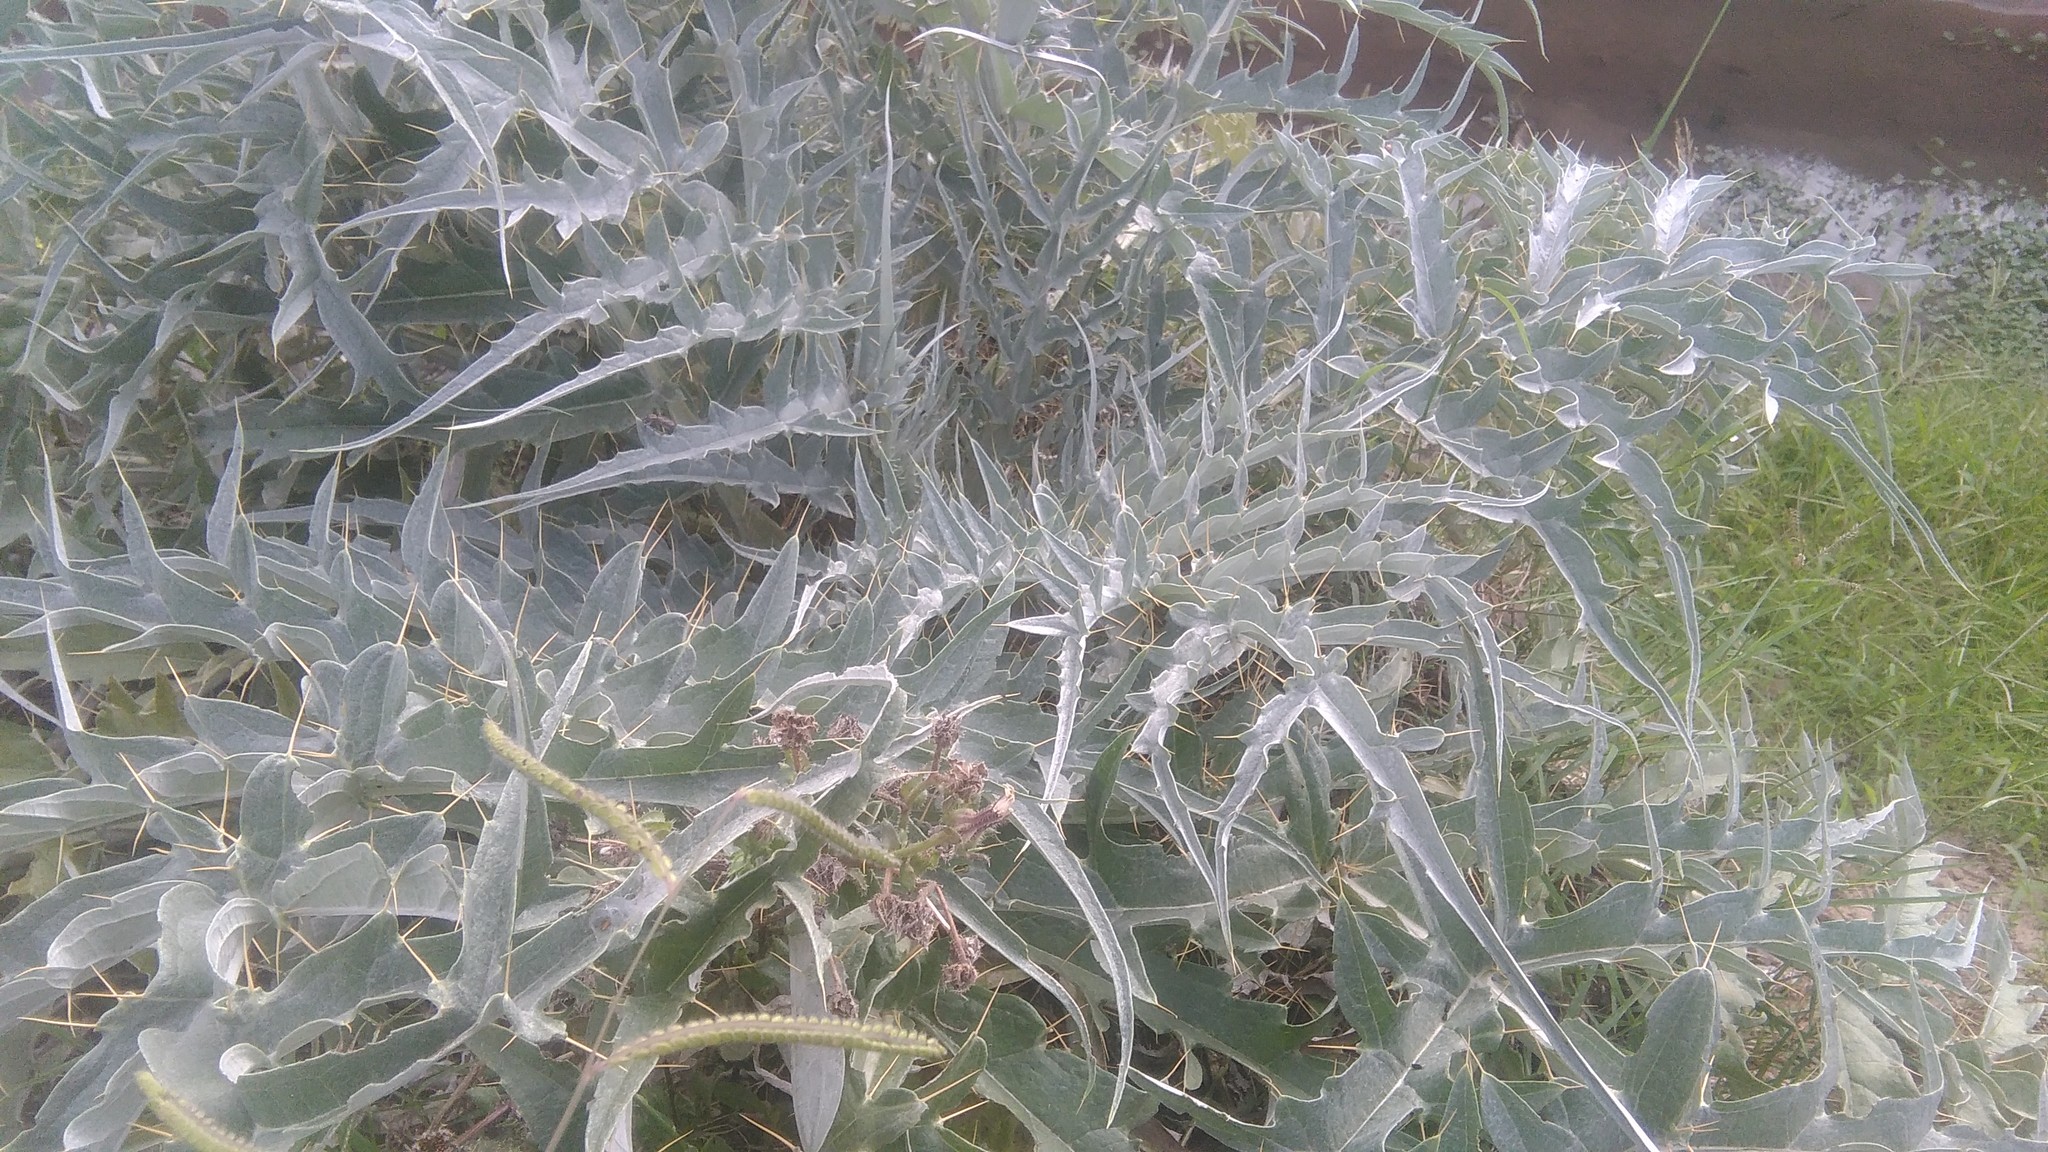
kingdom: Plantae
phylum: Tracheophyta
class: Magnoliopsida
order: Asterales
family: Asteraceae
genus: Cynara
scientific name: Cynara cardunculus
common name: Globe artichoke
